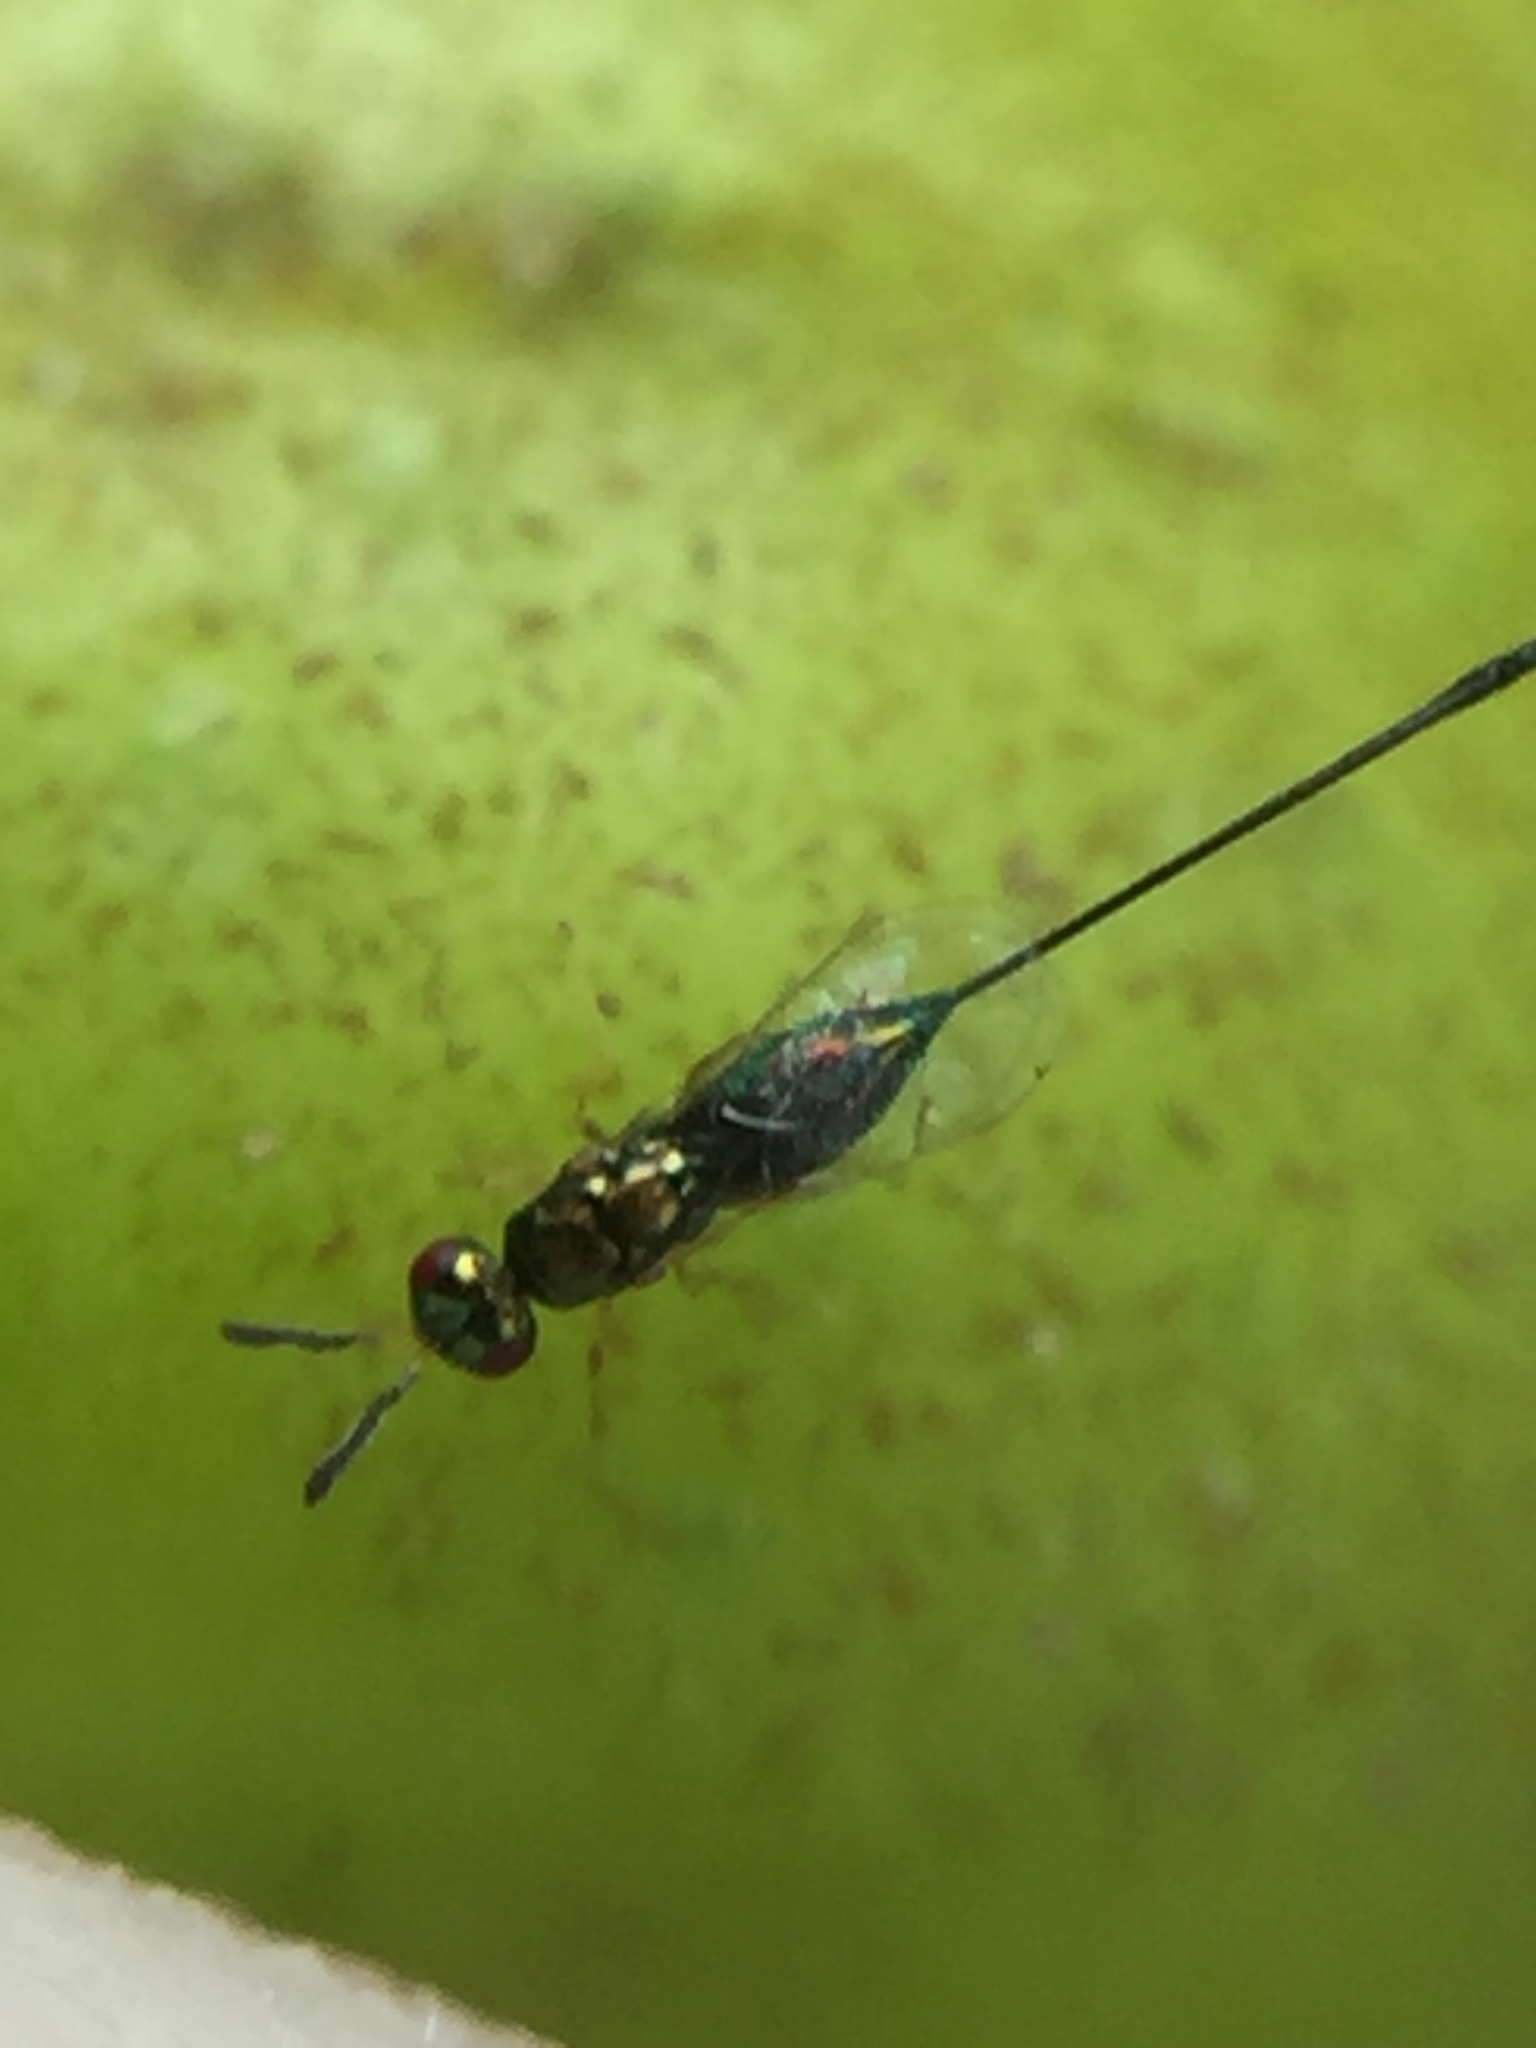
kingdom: Animalia
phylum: Arthropoda
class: Insecta
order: Hymenoptera
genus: Sycoscapter
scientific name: Sycoscapter
